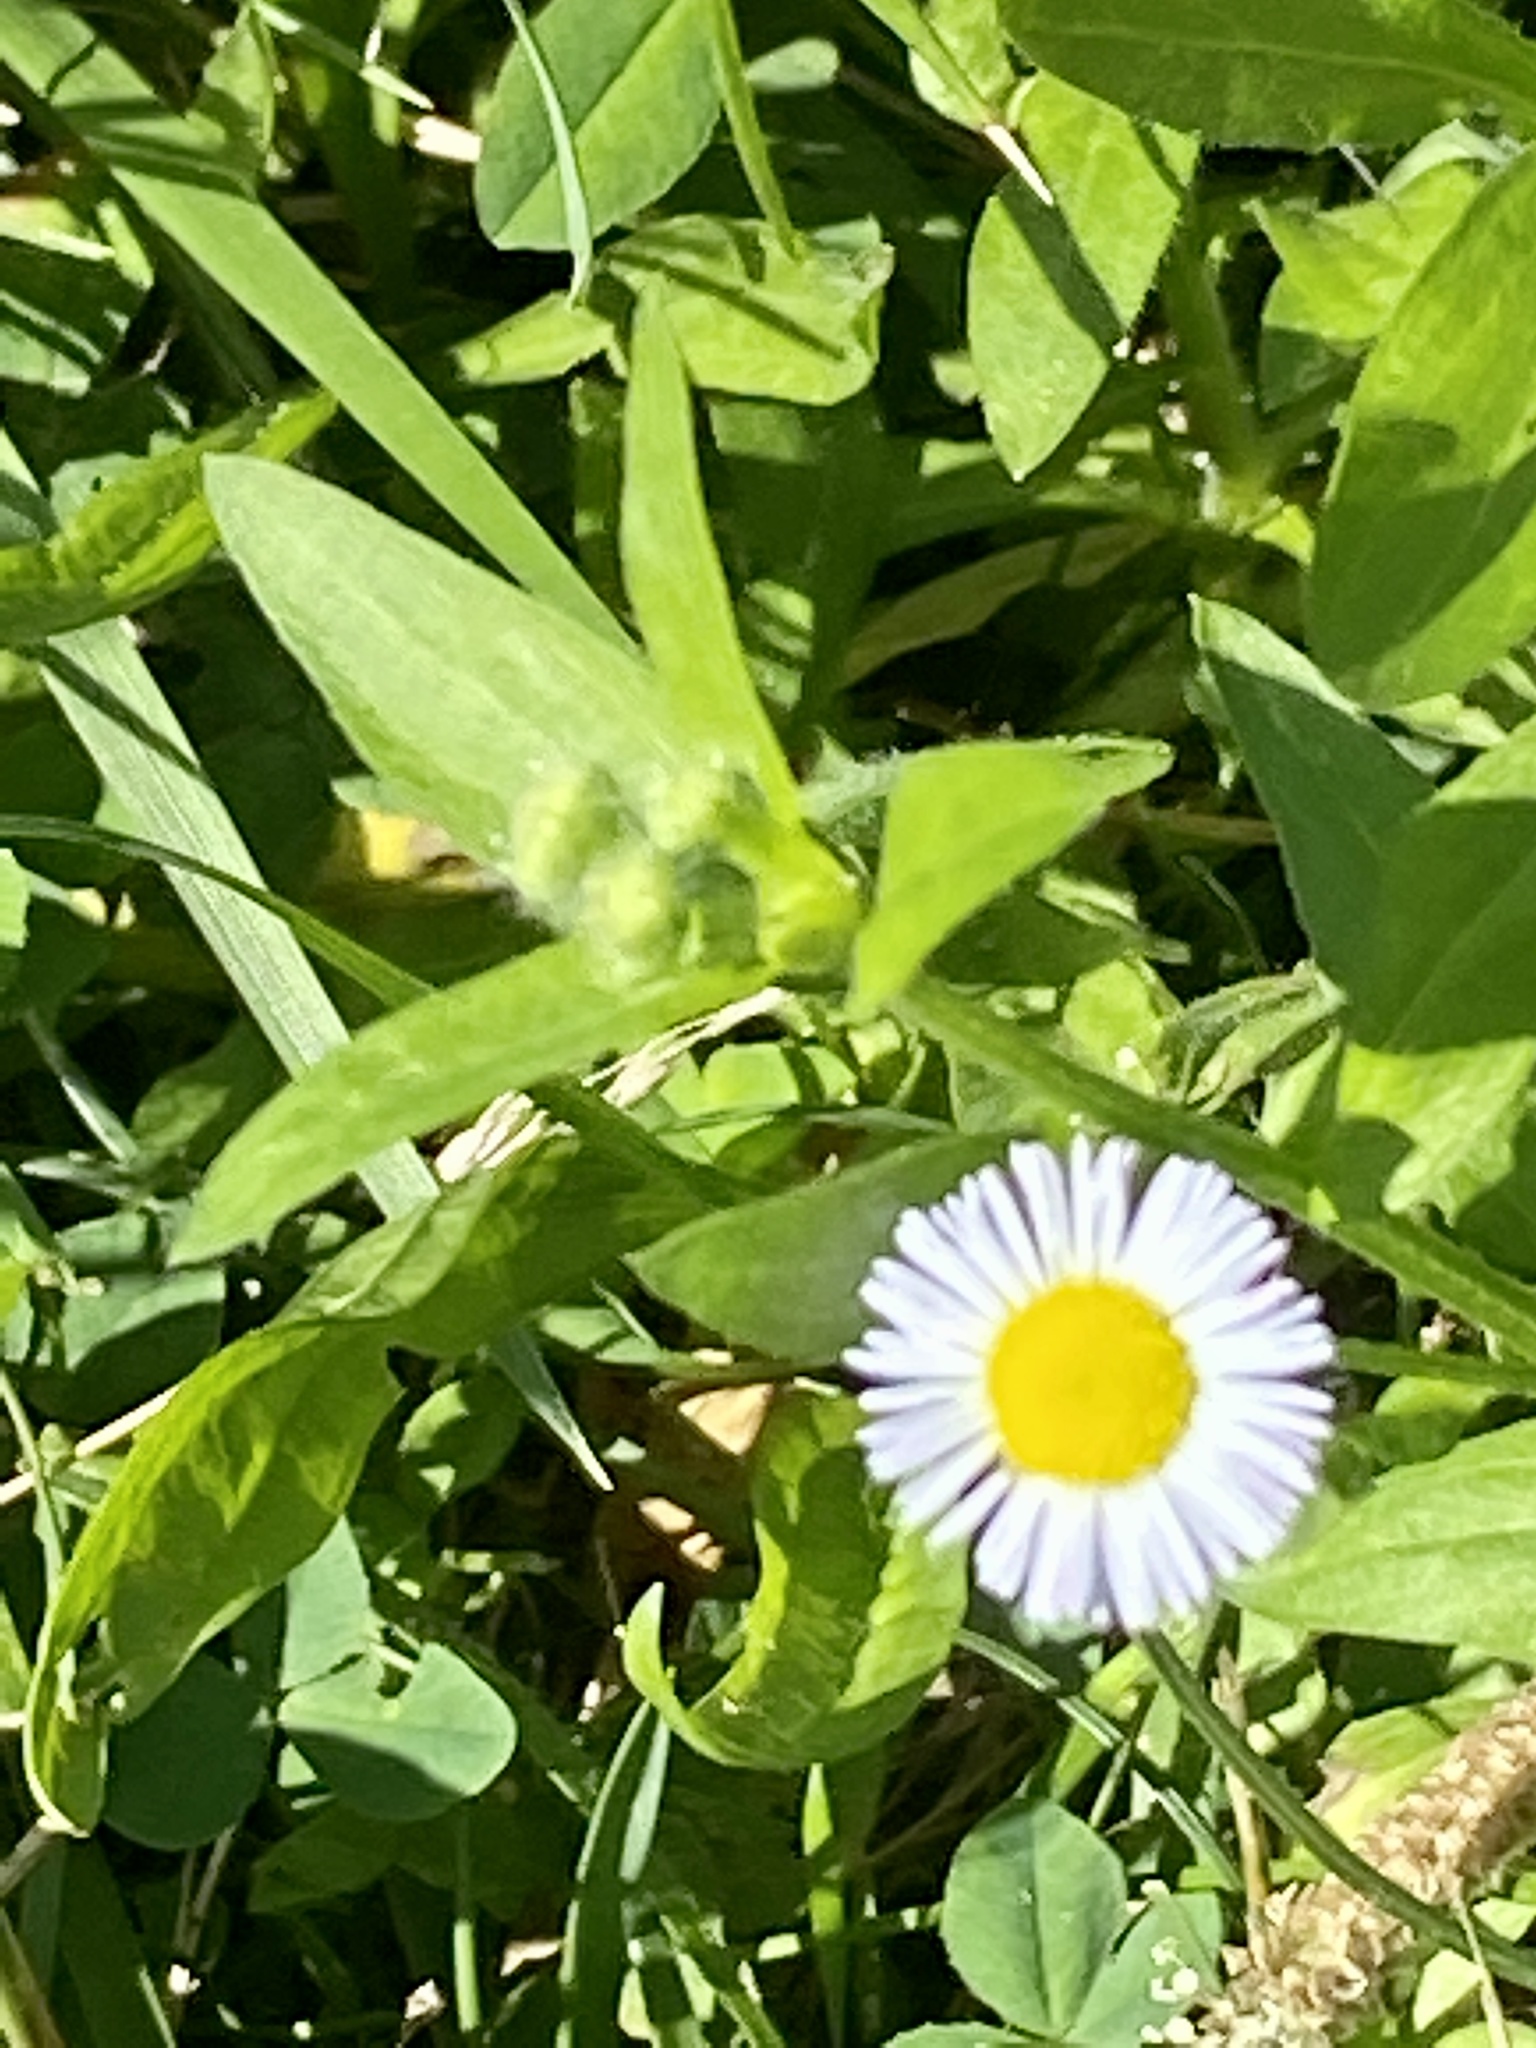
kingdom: Plantae
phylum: Tracheophyta
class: Magnoliopsida
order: Asterales
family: Asteraceae
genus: Erigeron
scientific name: Erigeron annuus
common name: Tall fleabane
